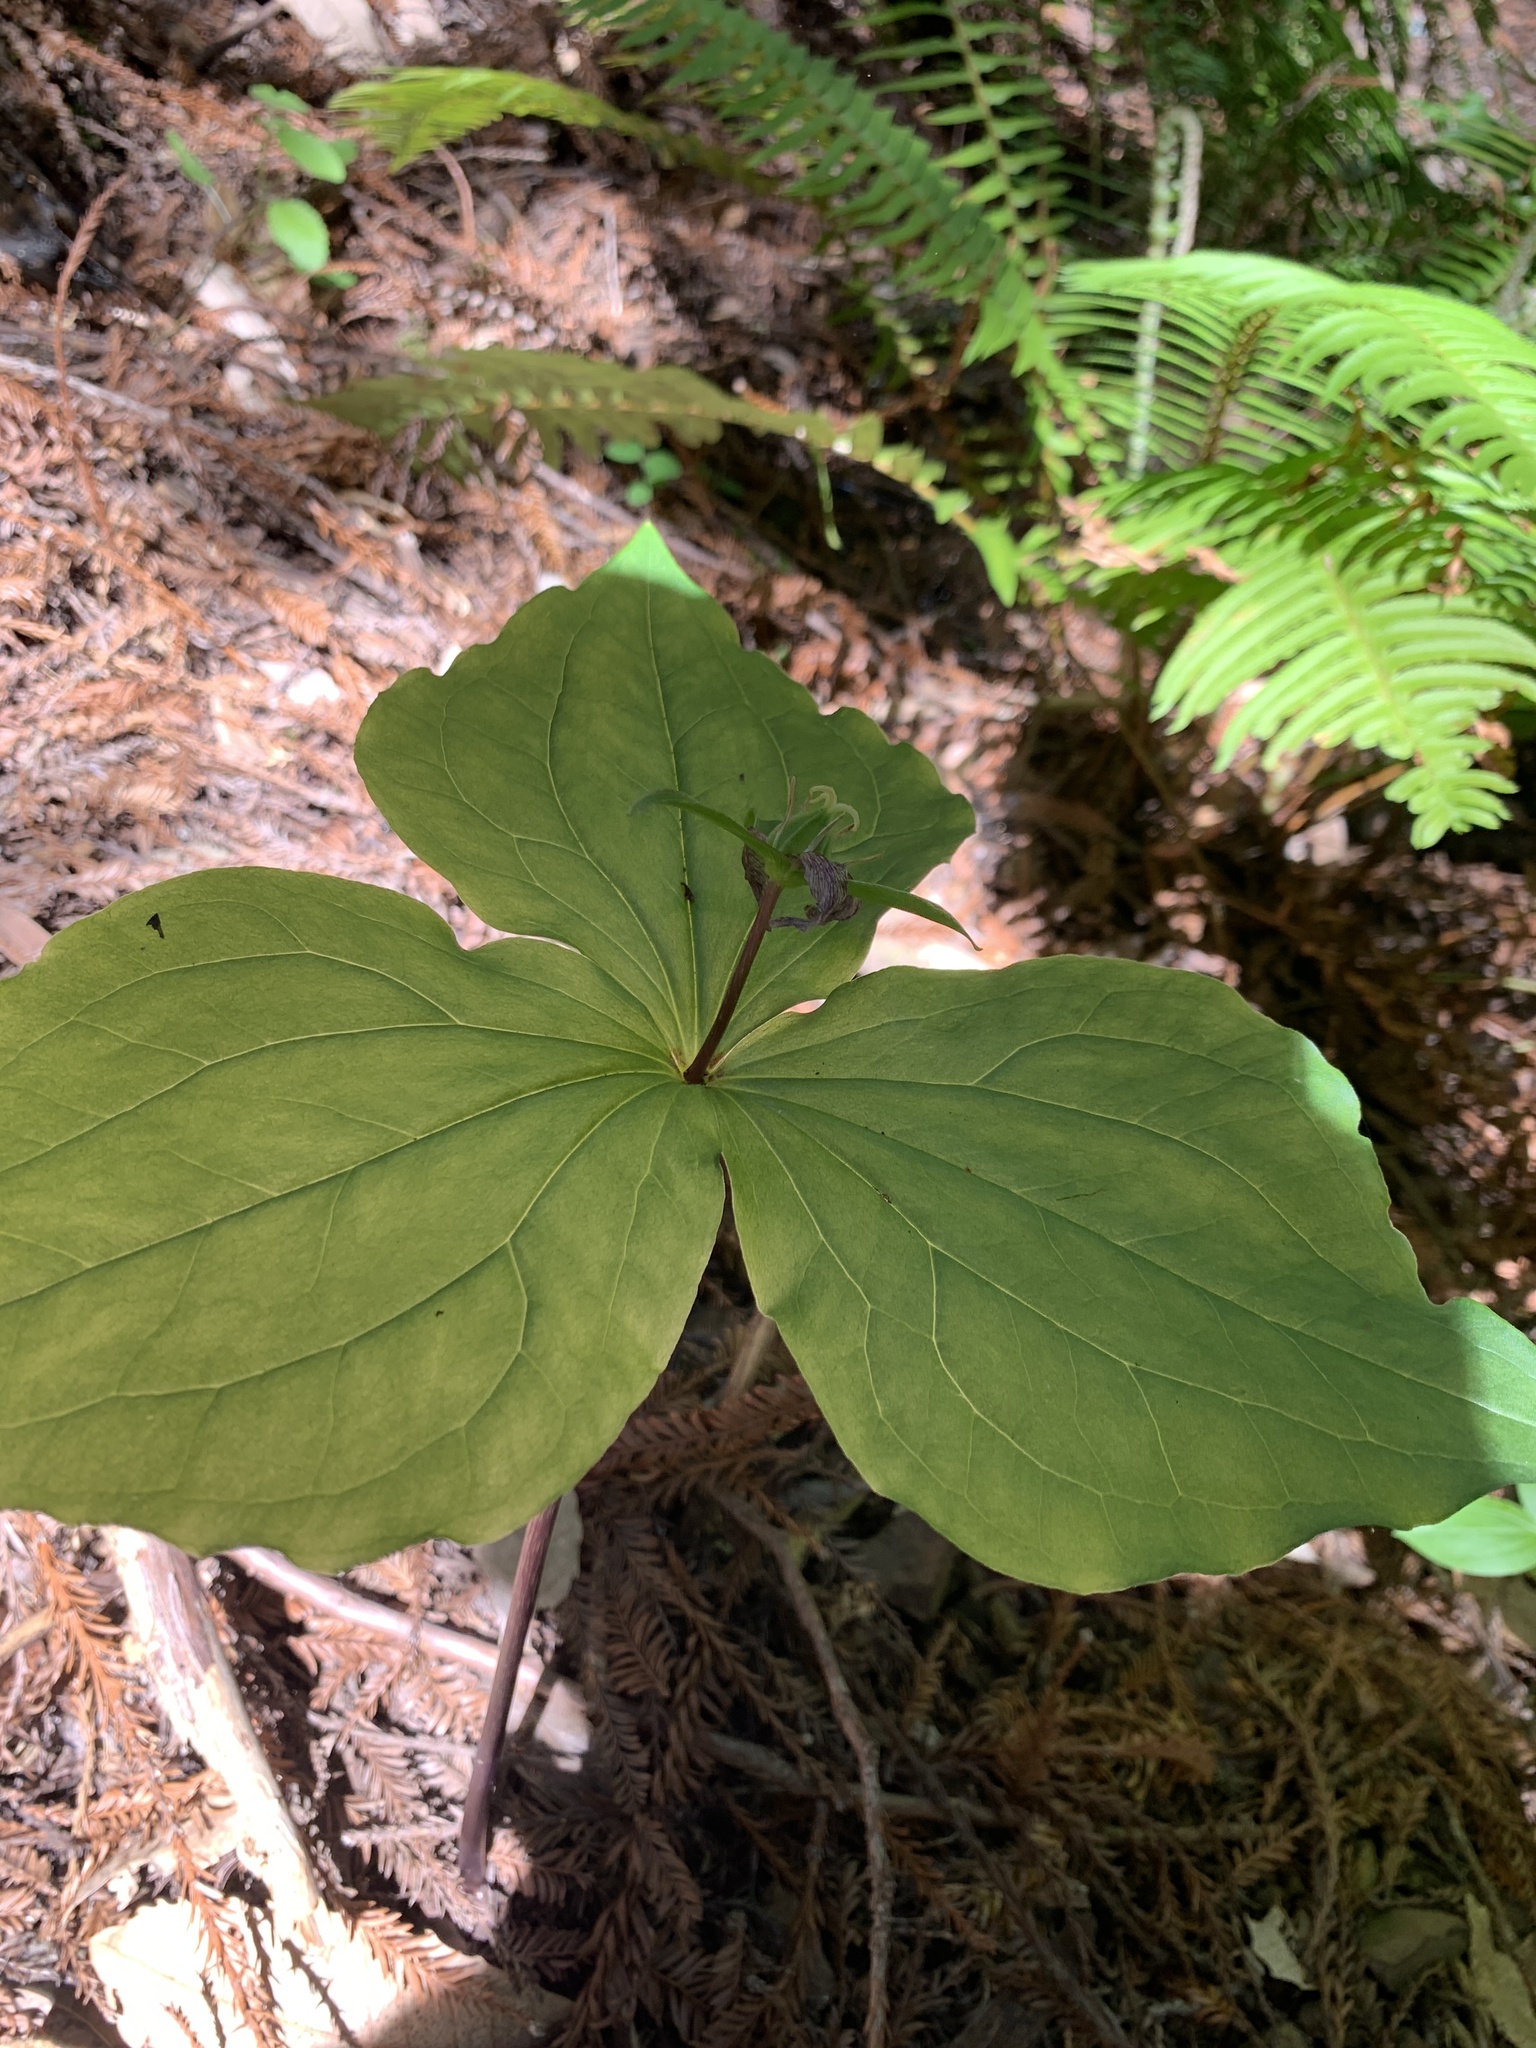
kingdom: Plantae
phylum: Tracheophyta
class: Liliopsida
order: Liliales
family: Melanthiaceae
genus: Trillium
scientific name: Trillium ovatum
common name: Pacific trillium
